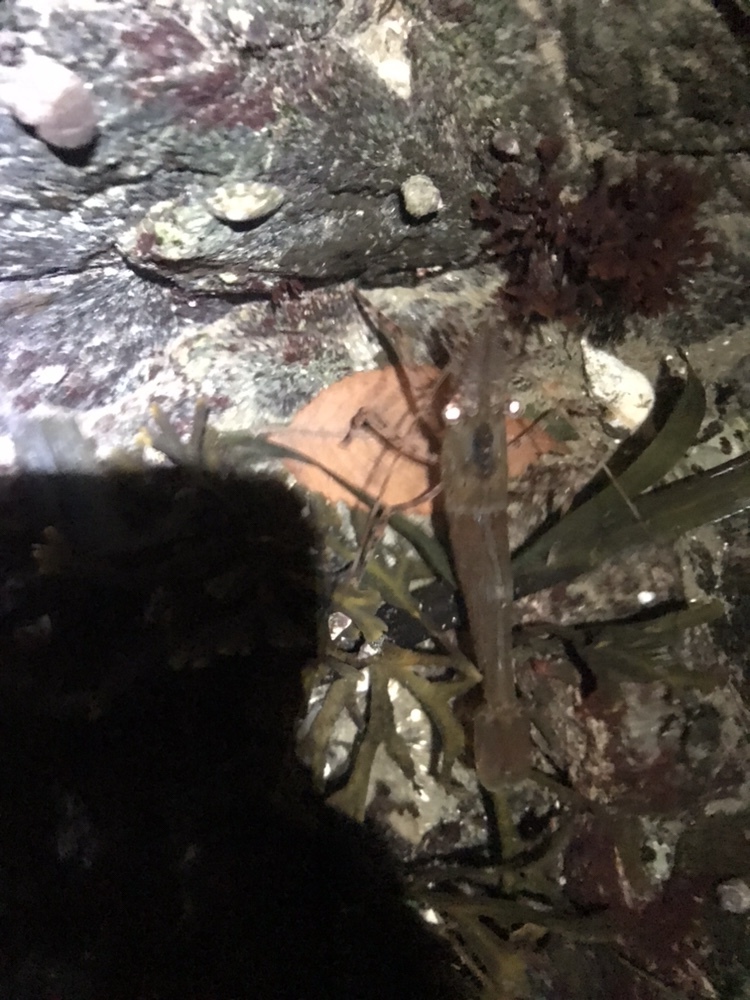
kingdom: Animalia
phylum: Arthropoda
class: Malacostraca
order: Decapoda
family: Pandalidae
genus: Pandalus
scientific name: Pandalus danae
